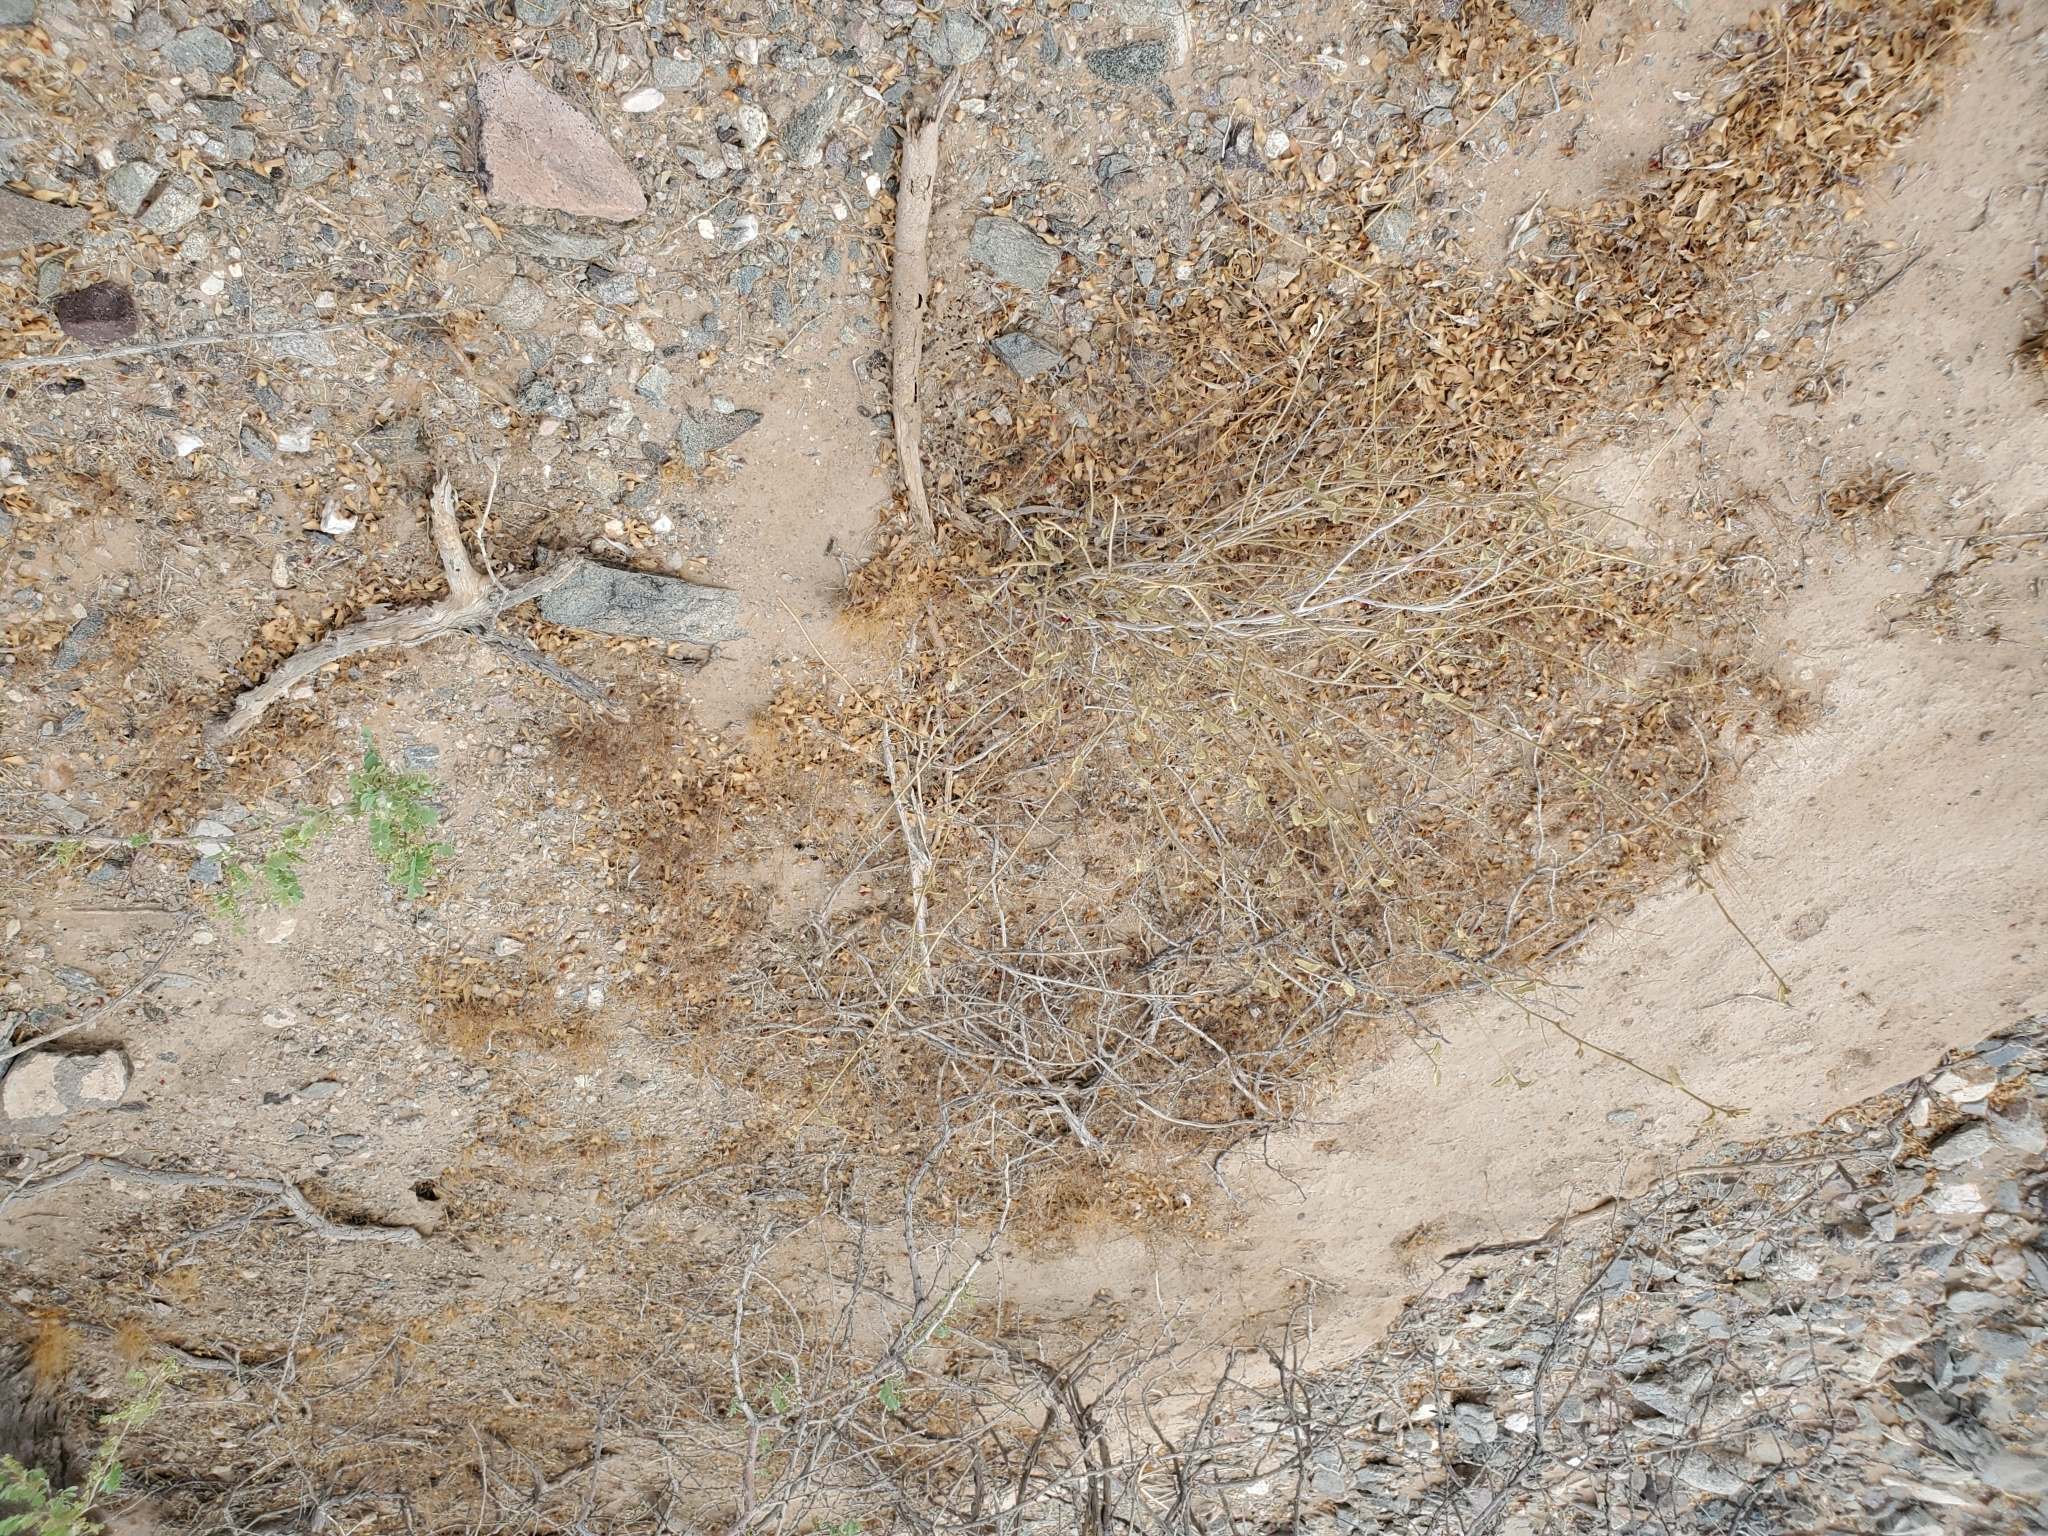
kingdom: Plantae
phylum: Tracheophyta
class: Magnoliopsida
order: Malvales
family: Malvaceae
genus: Hibiscus
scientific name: Hibiscus denudatus
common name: Paleface
